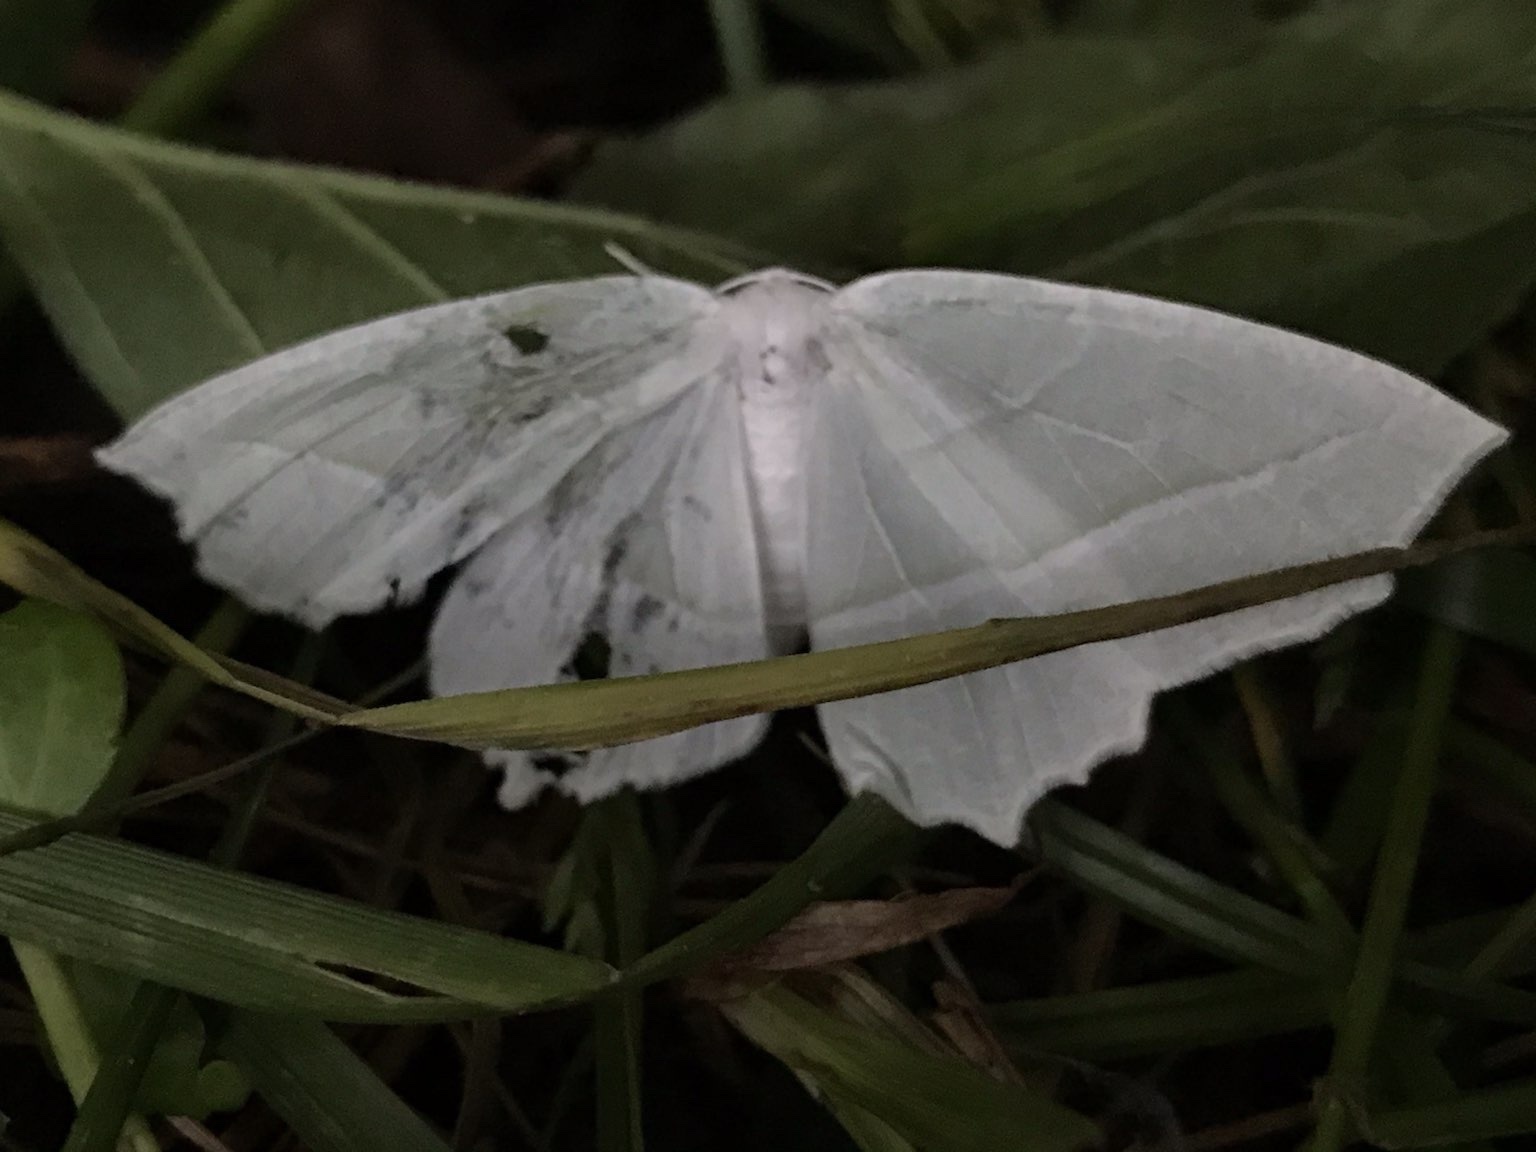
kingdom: Animalia
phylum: Arthropoda
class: Insecta
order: Lepidoptera
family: Geometridae
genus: Campaea
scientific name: Campaea perlata
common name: Fringed looper
